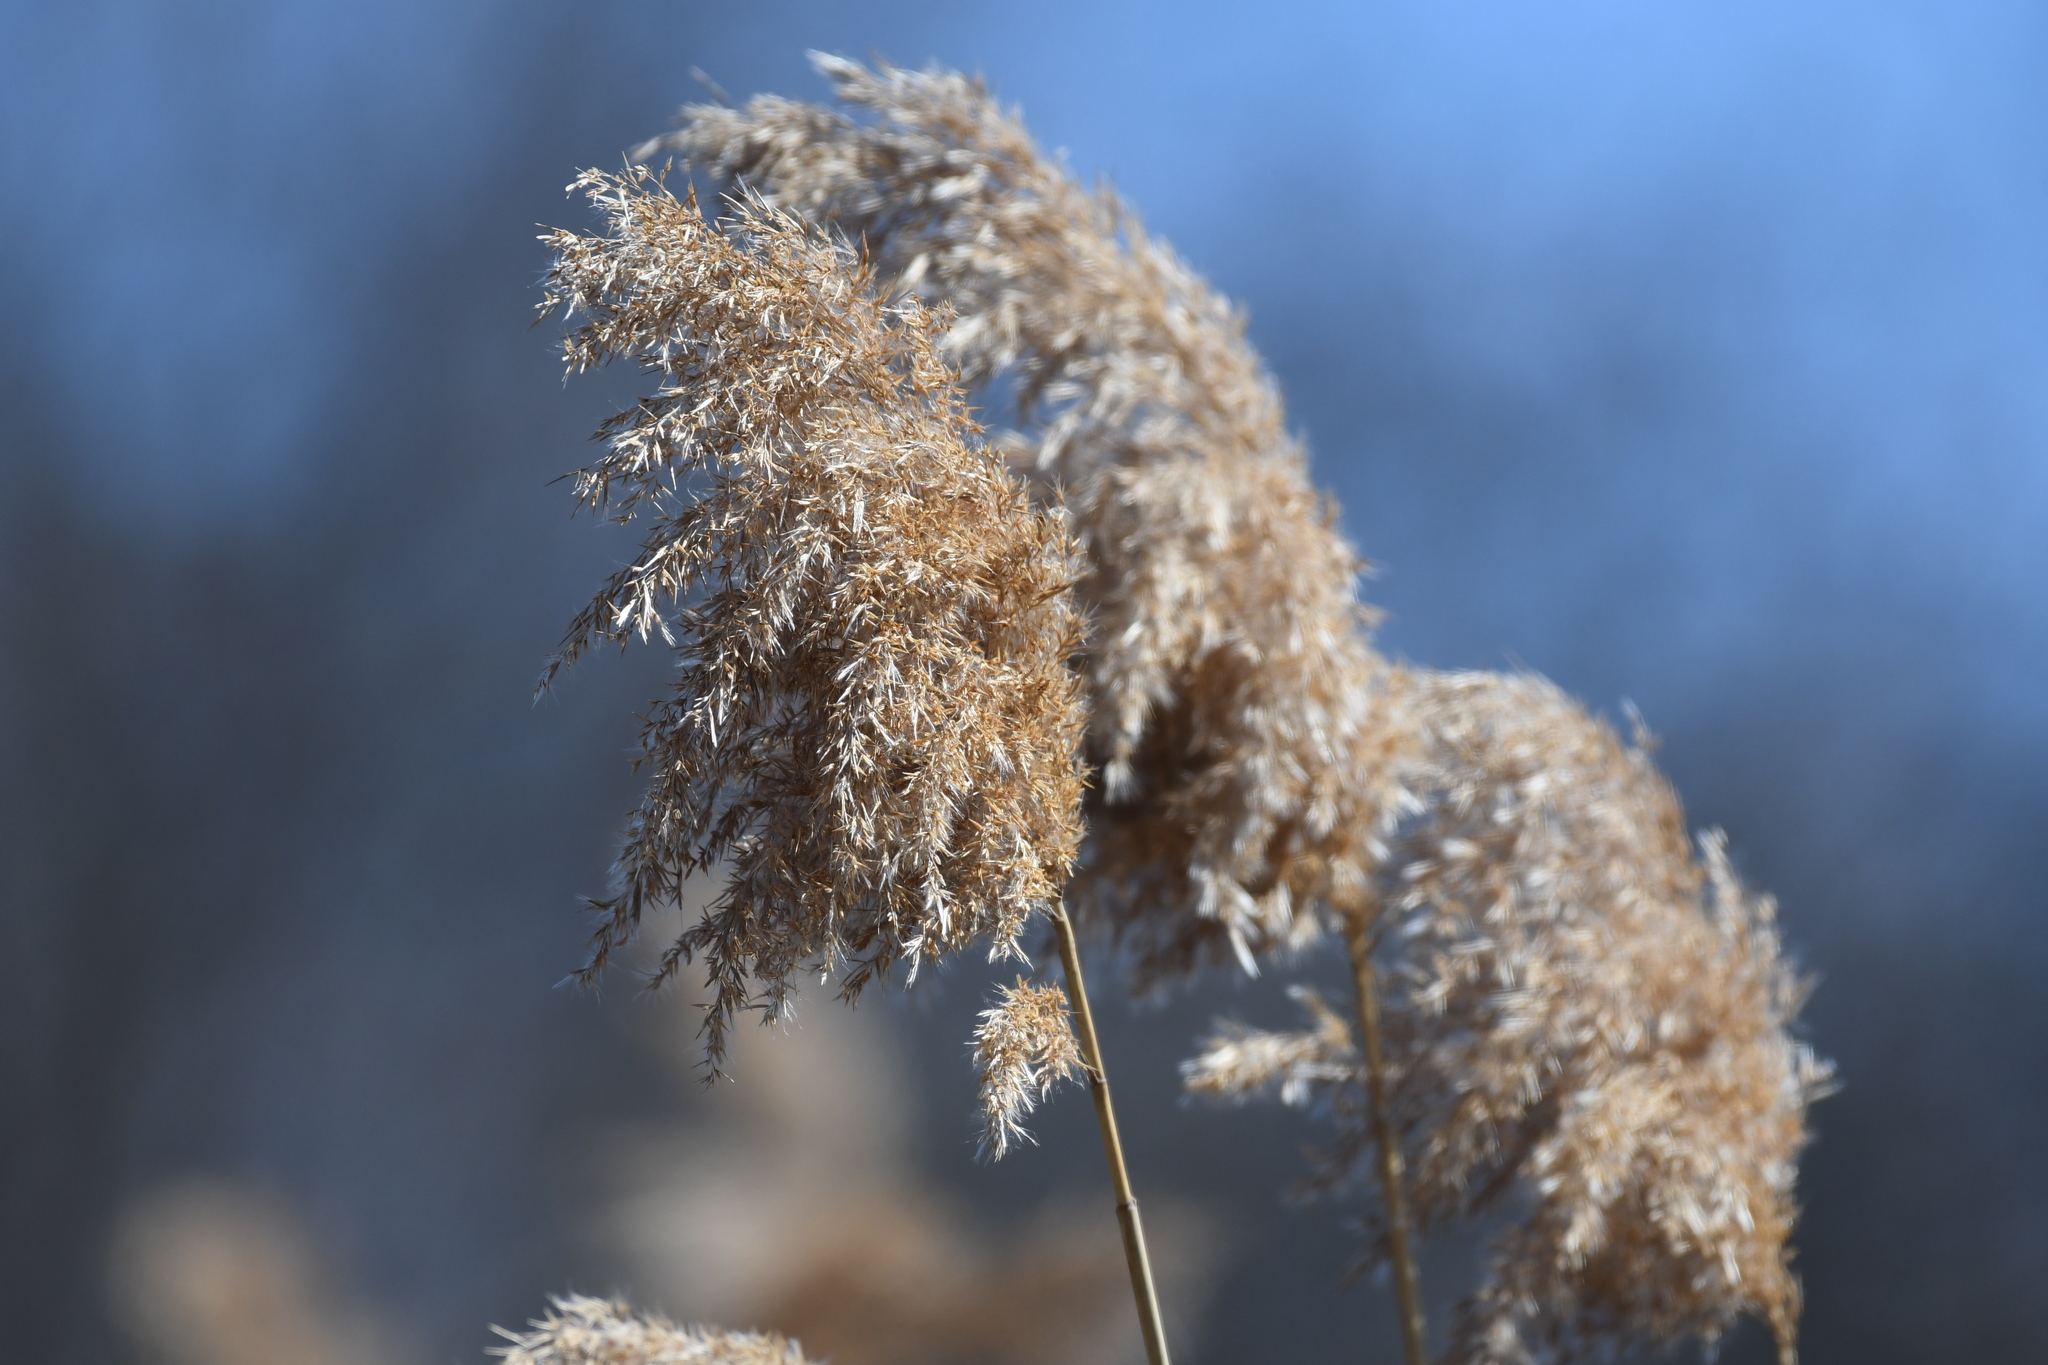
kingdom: Plantae
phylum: Tracheophyta
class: Liliopsida
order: Poales
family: Poaceae
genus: Phragmites
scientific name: Phragmites australis
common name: Common reed
